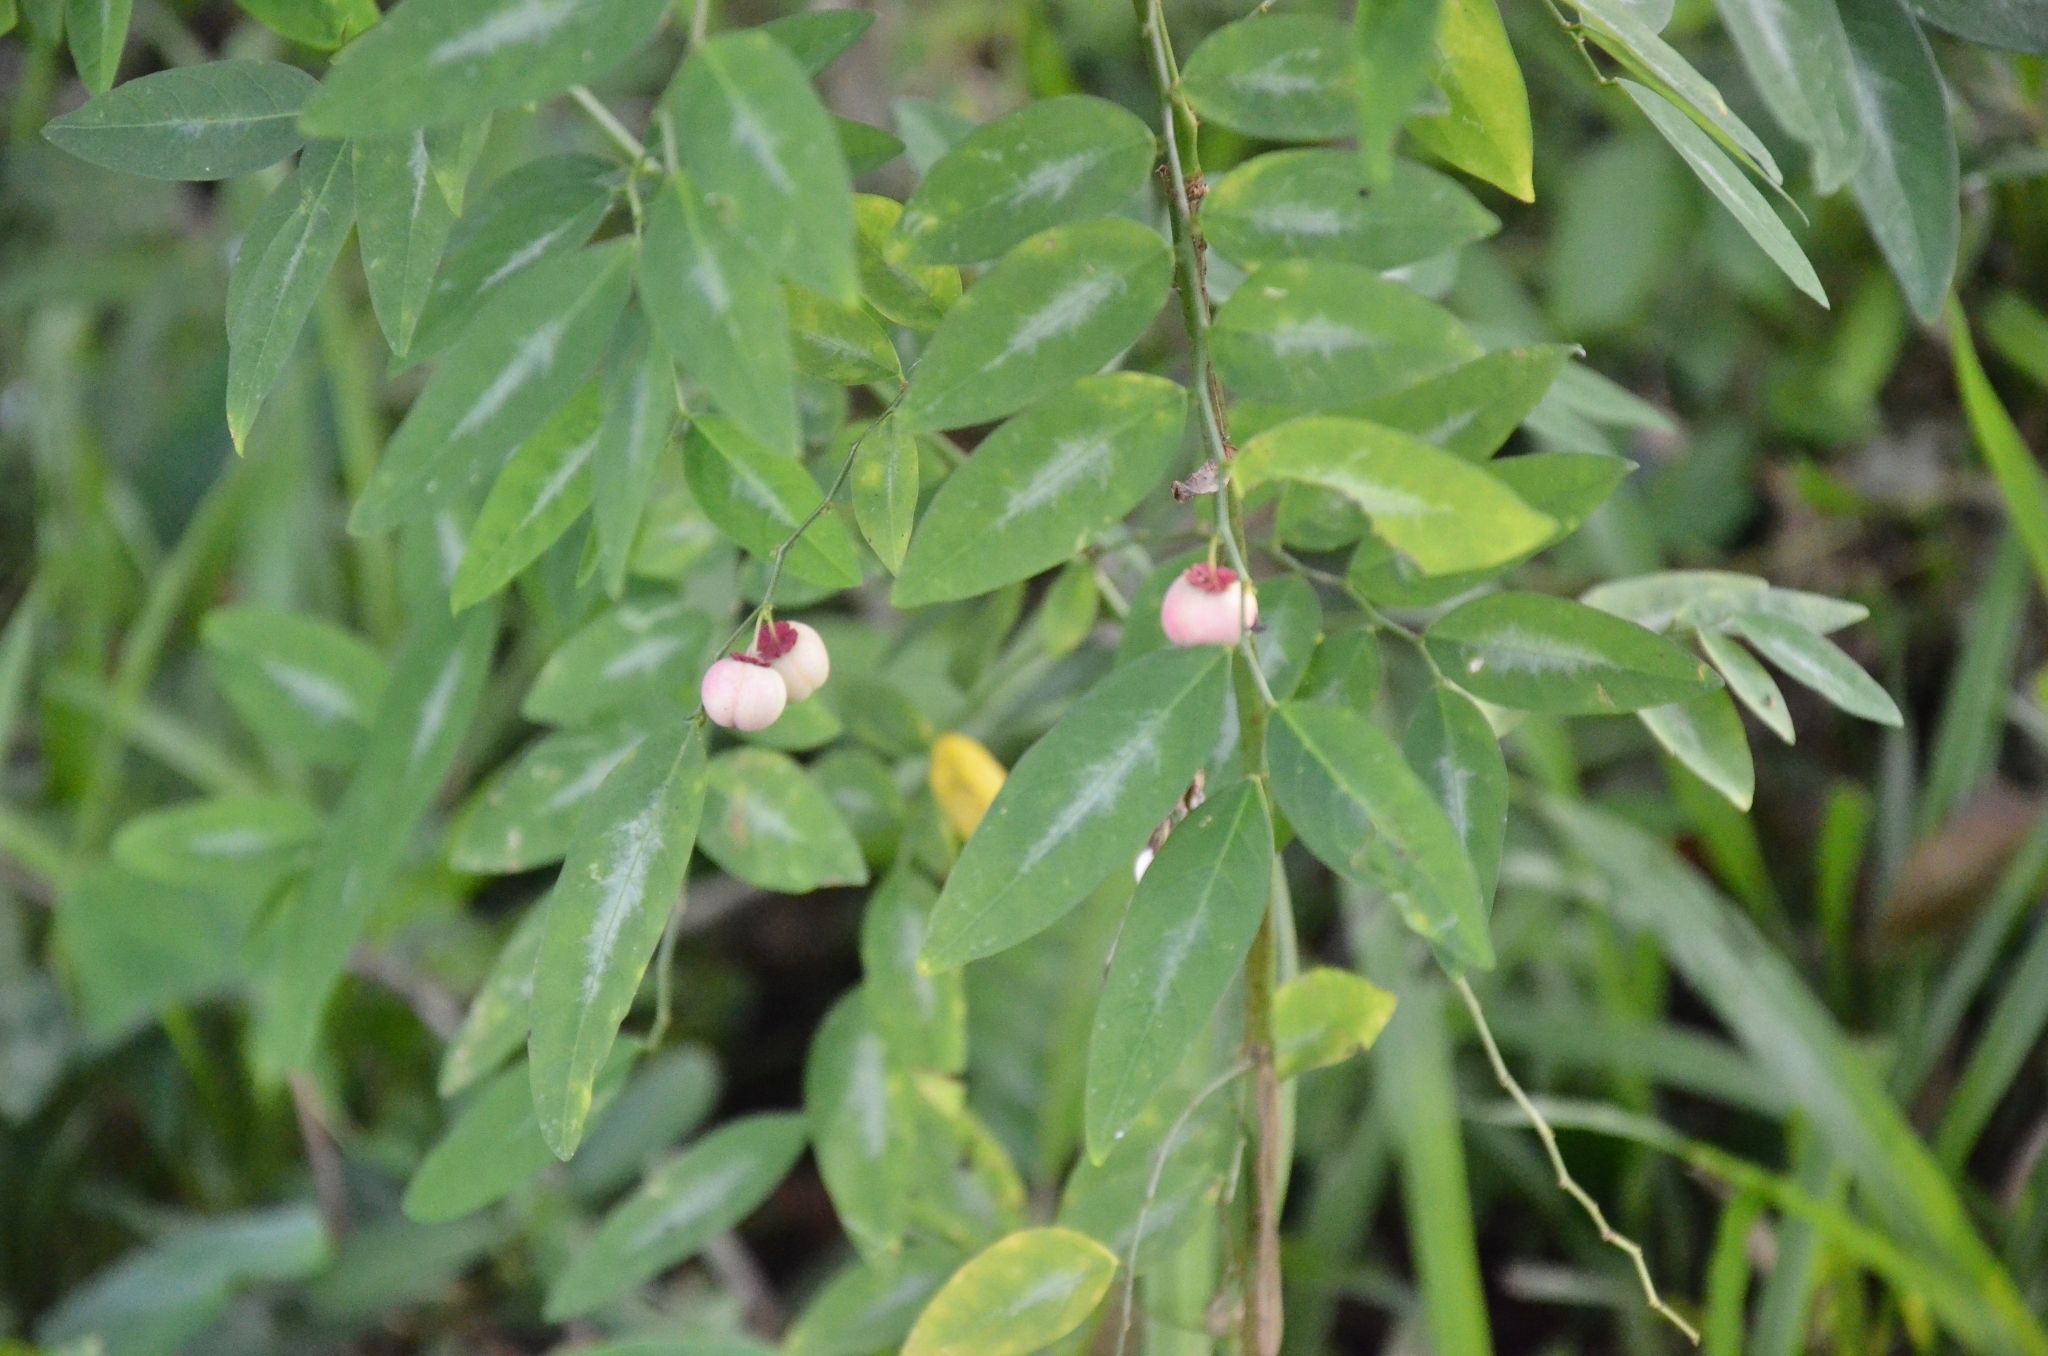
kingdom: Plantae
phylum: Tracheophyta
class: Magnoliopsida
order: Malpighiales
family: Phyllanthaceae
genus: Breynia
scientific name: Breynia androgyna
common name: Star gooseberry
